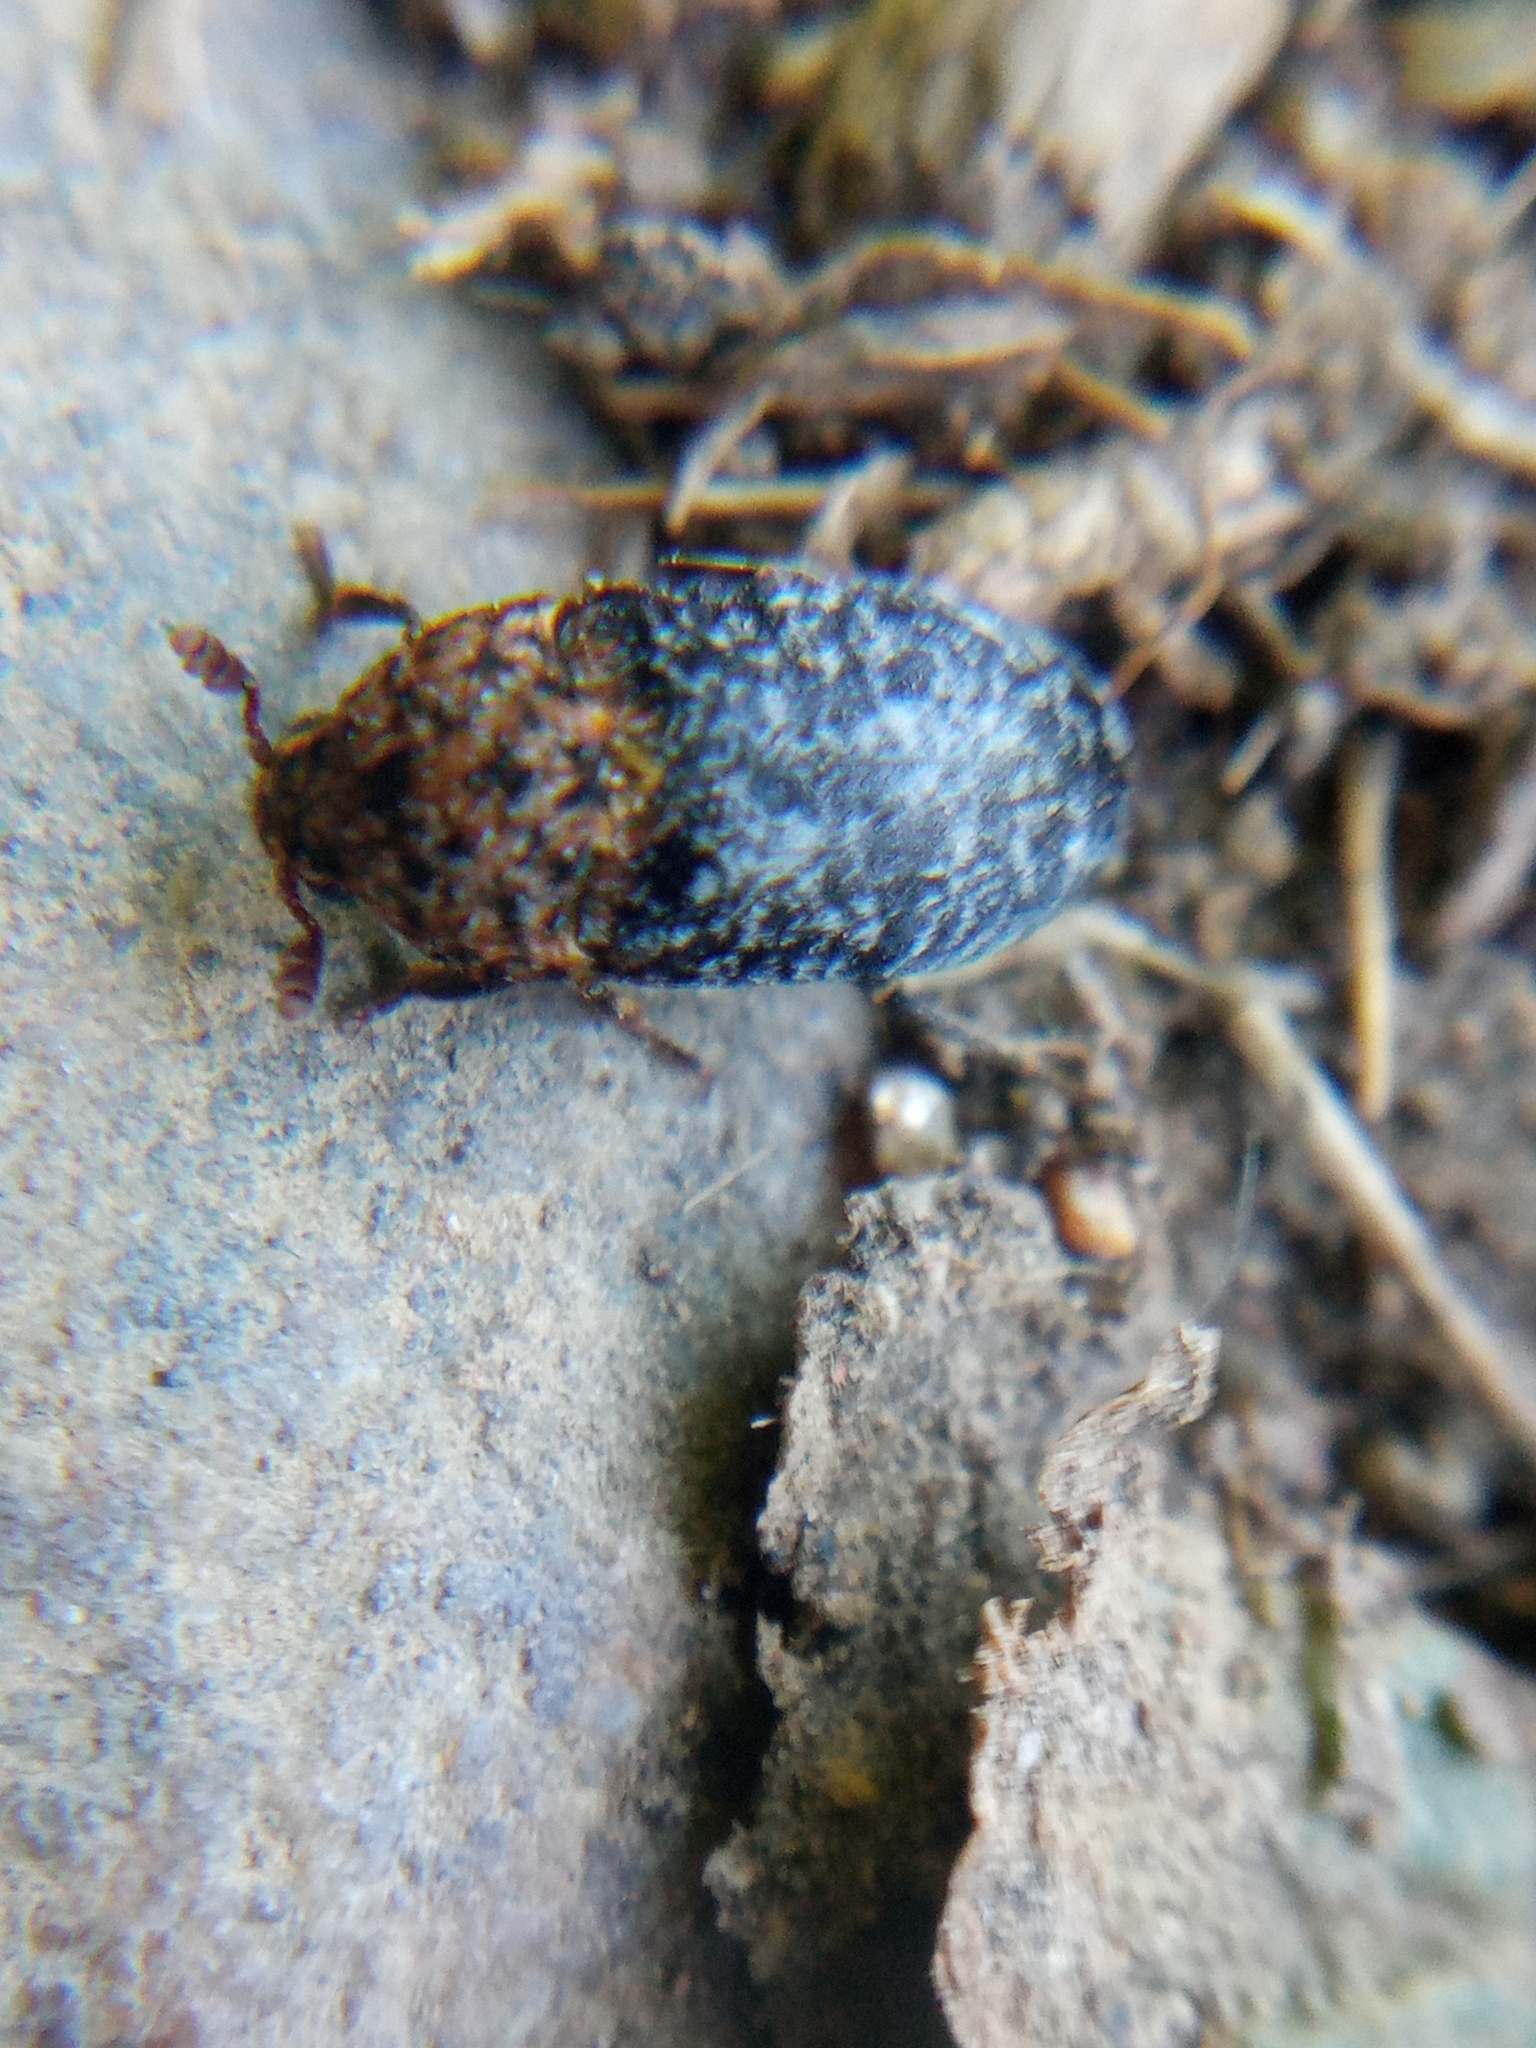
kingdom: Animalia
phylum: Arthropoda
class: Insecta
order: Coleoptera
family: Dermestidae
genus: Dermestes
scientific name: Dermestes undulatus
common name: Wavy carpet beetle
